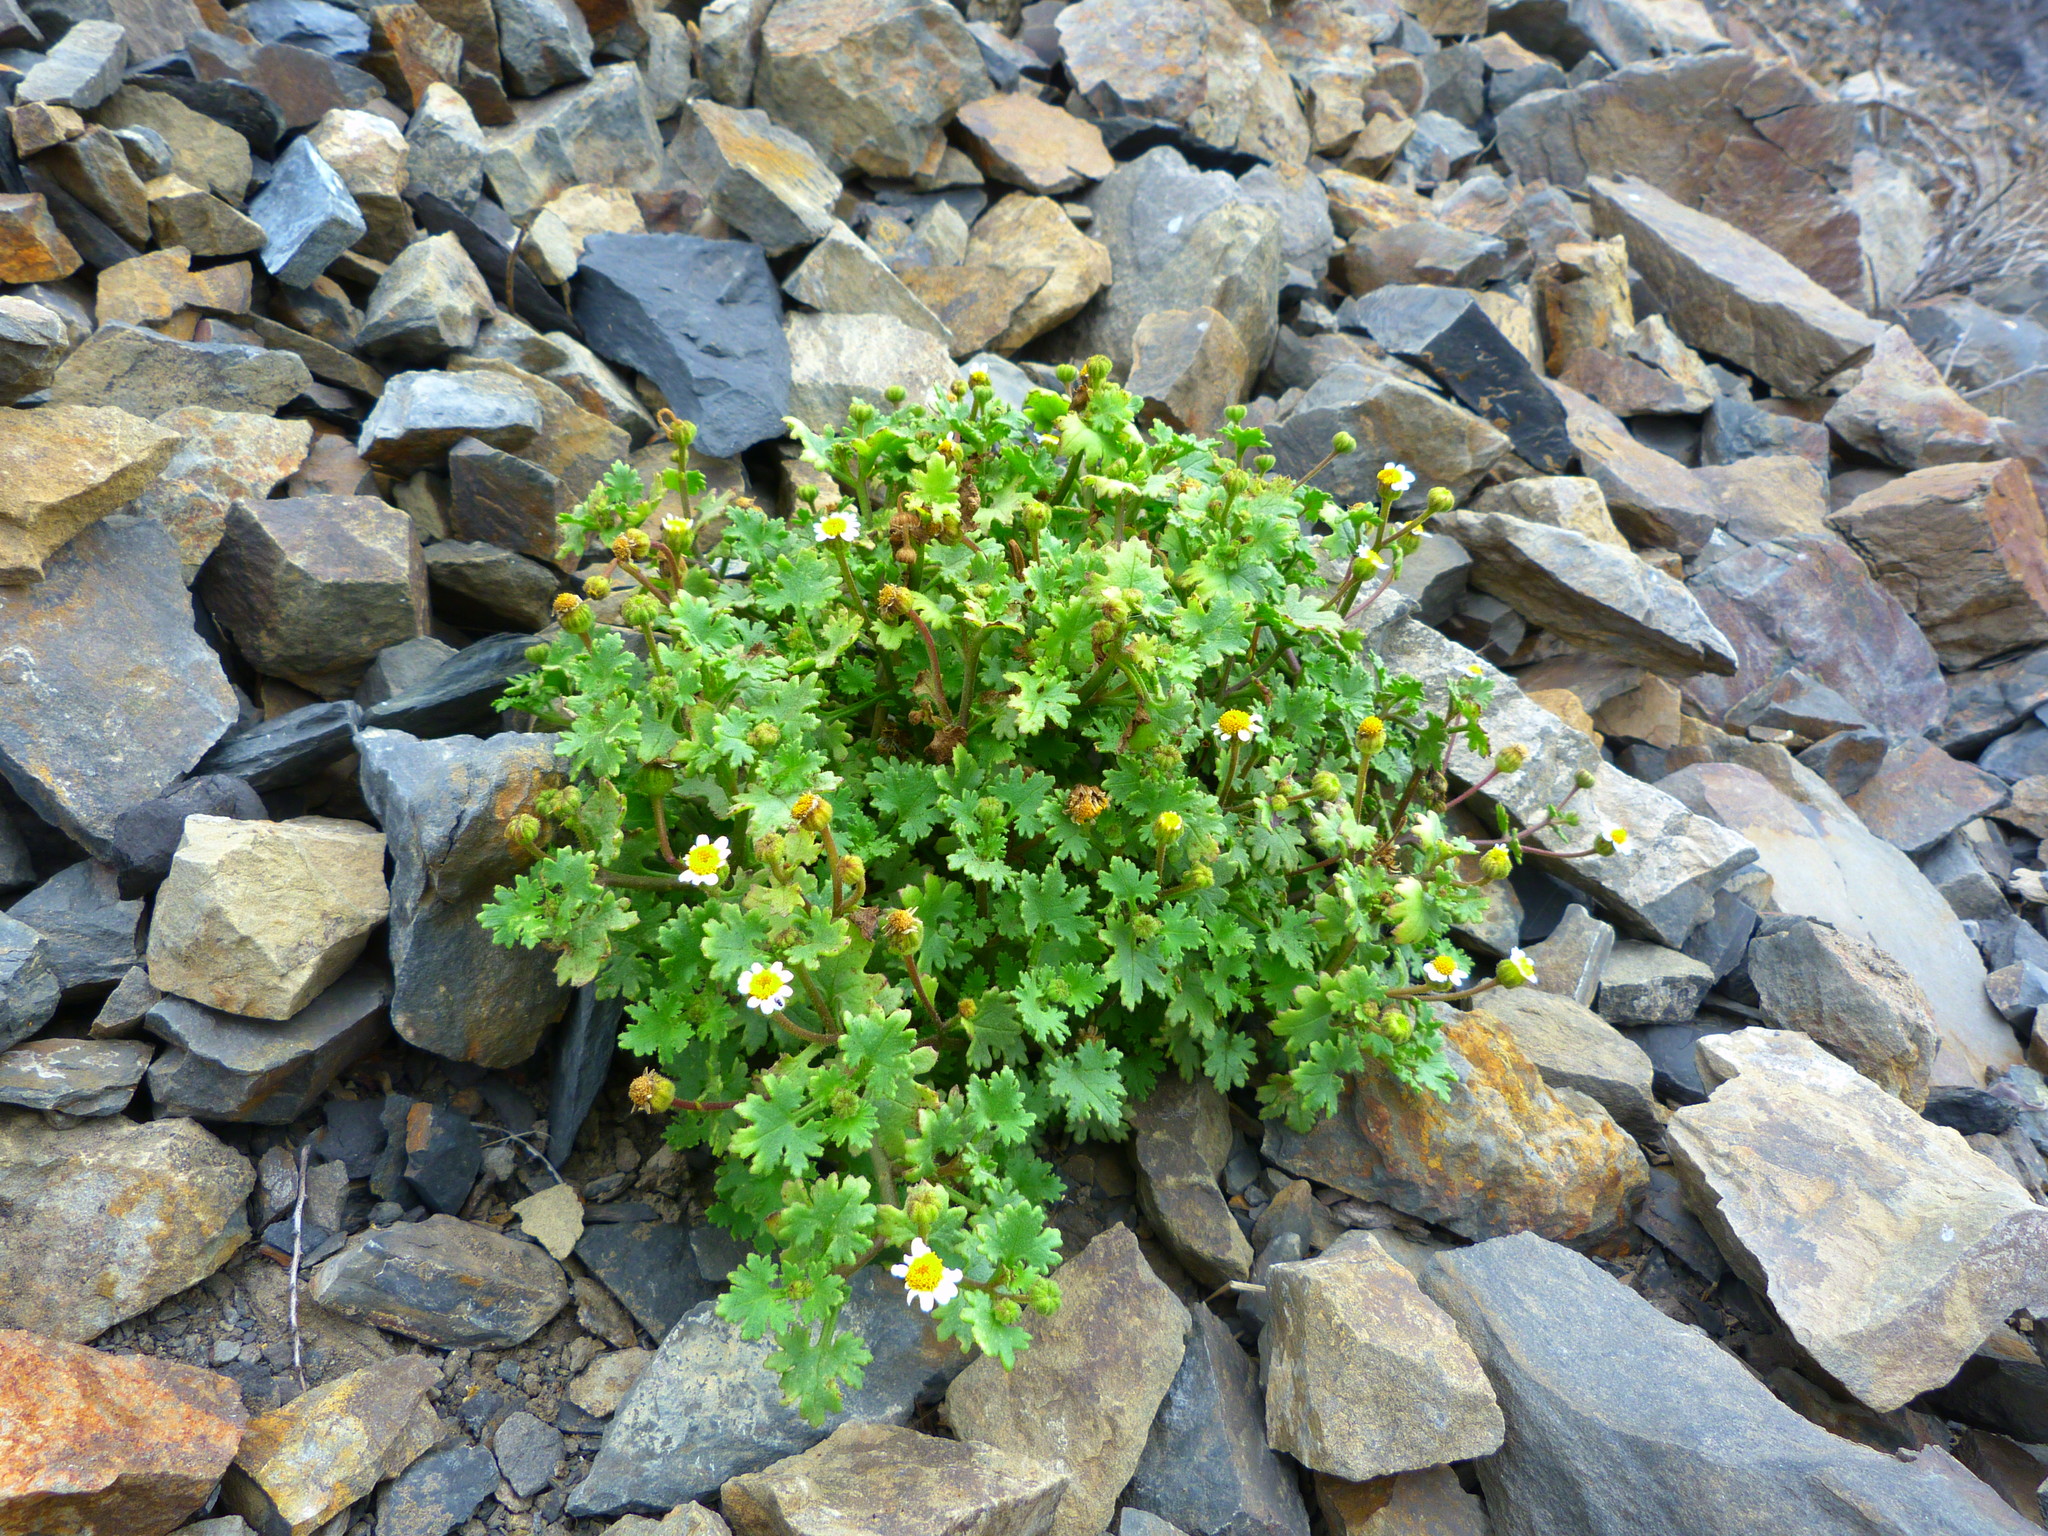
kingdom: Plantae
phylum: Tracheophyta
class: Magnoliopsida
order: Asterales
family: Asteraceae
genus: Laphamia
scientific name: Laphamia emoryi
